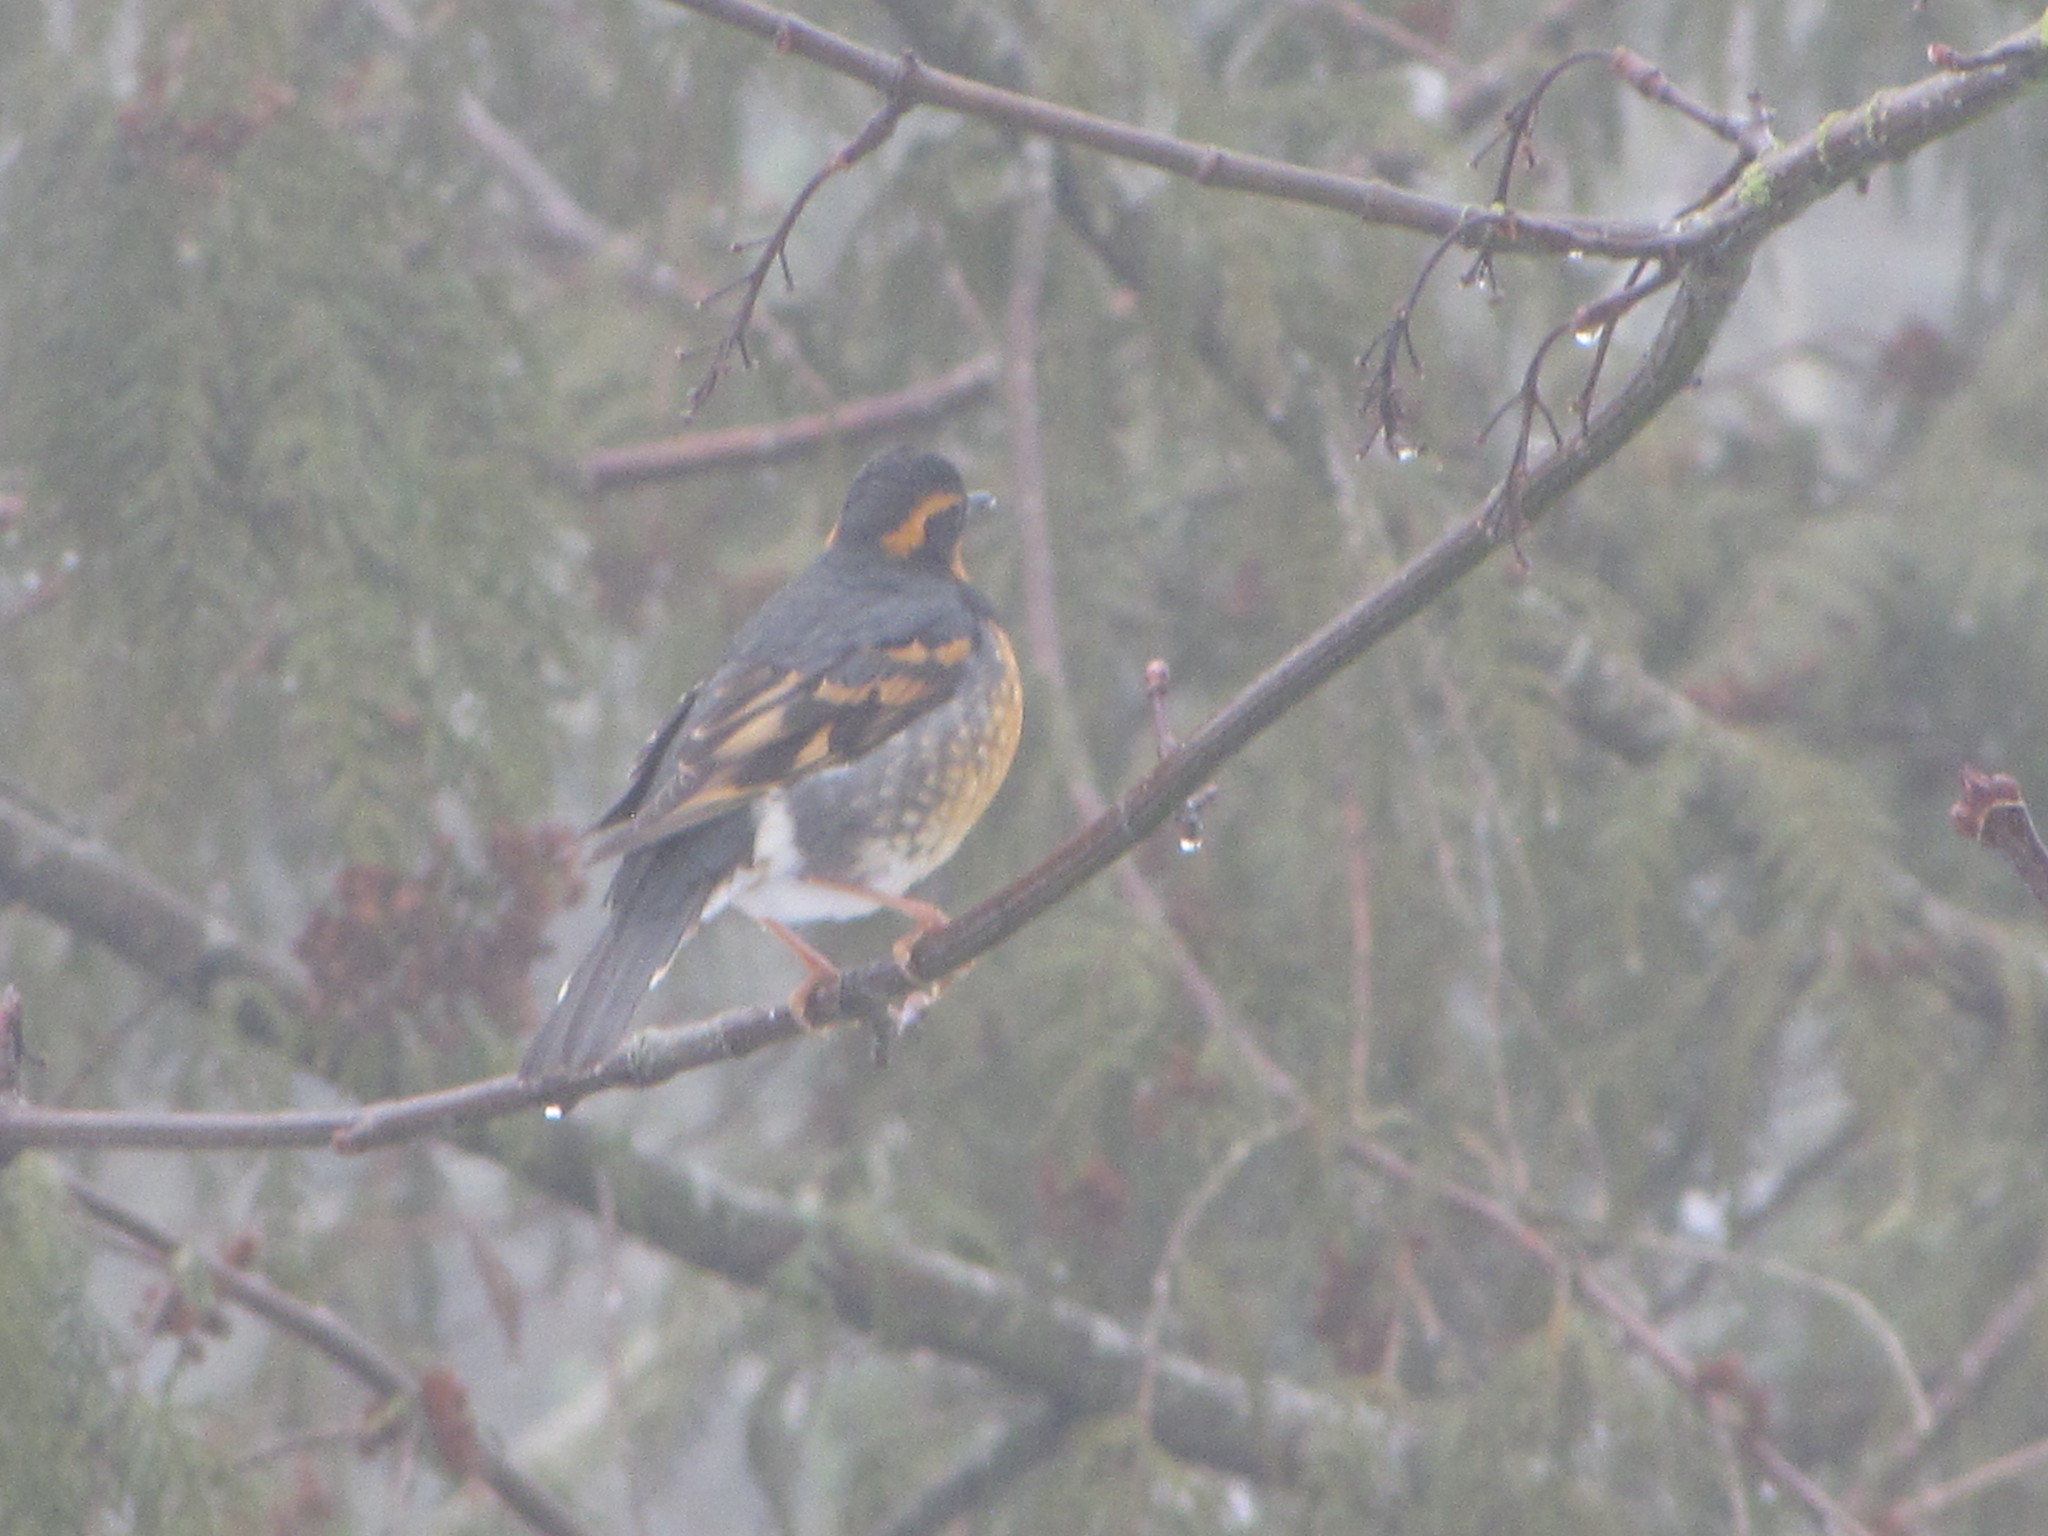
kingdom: Animalia
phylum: Chordata
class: Aves
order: Passeriformes
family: Turdidae
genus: Ixoreus
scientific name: Ixoreus naevius
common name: Varied thrush
